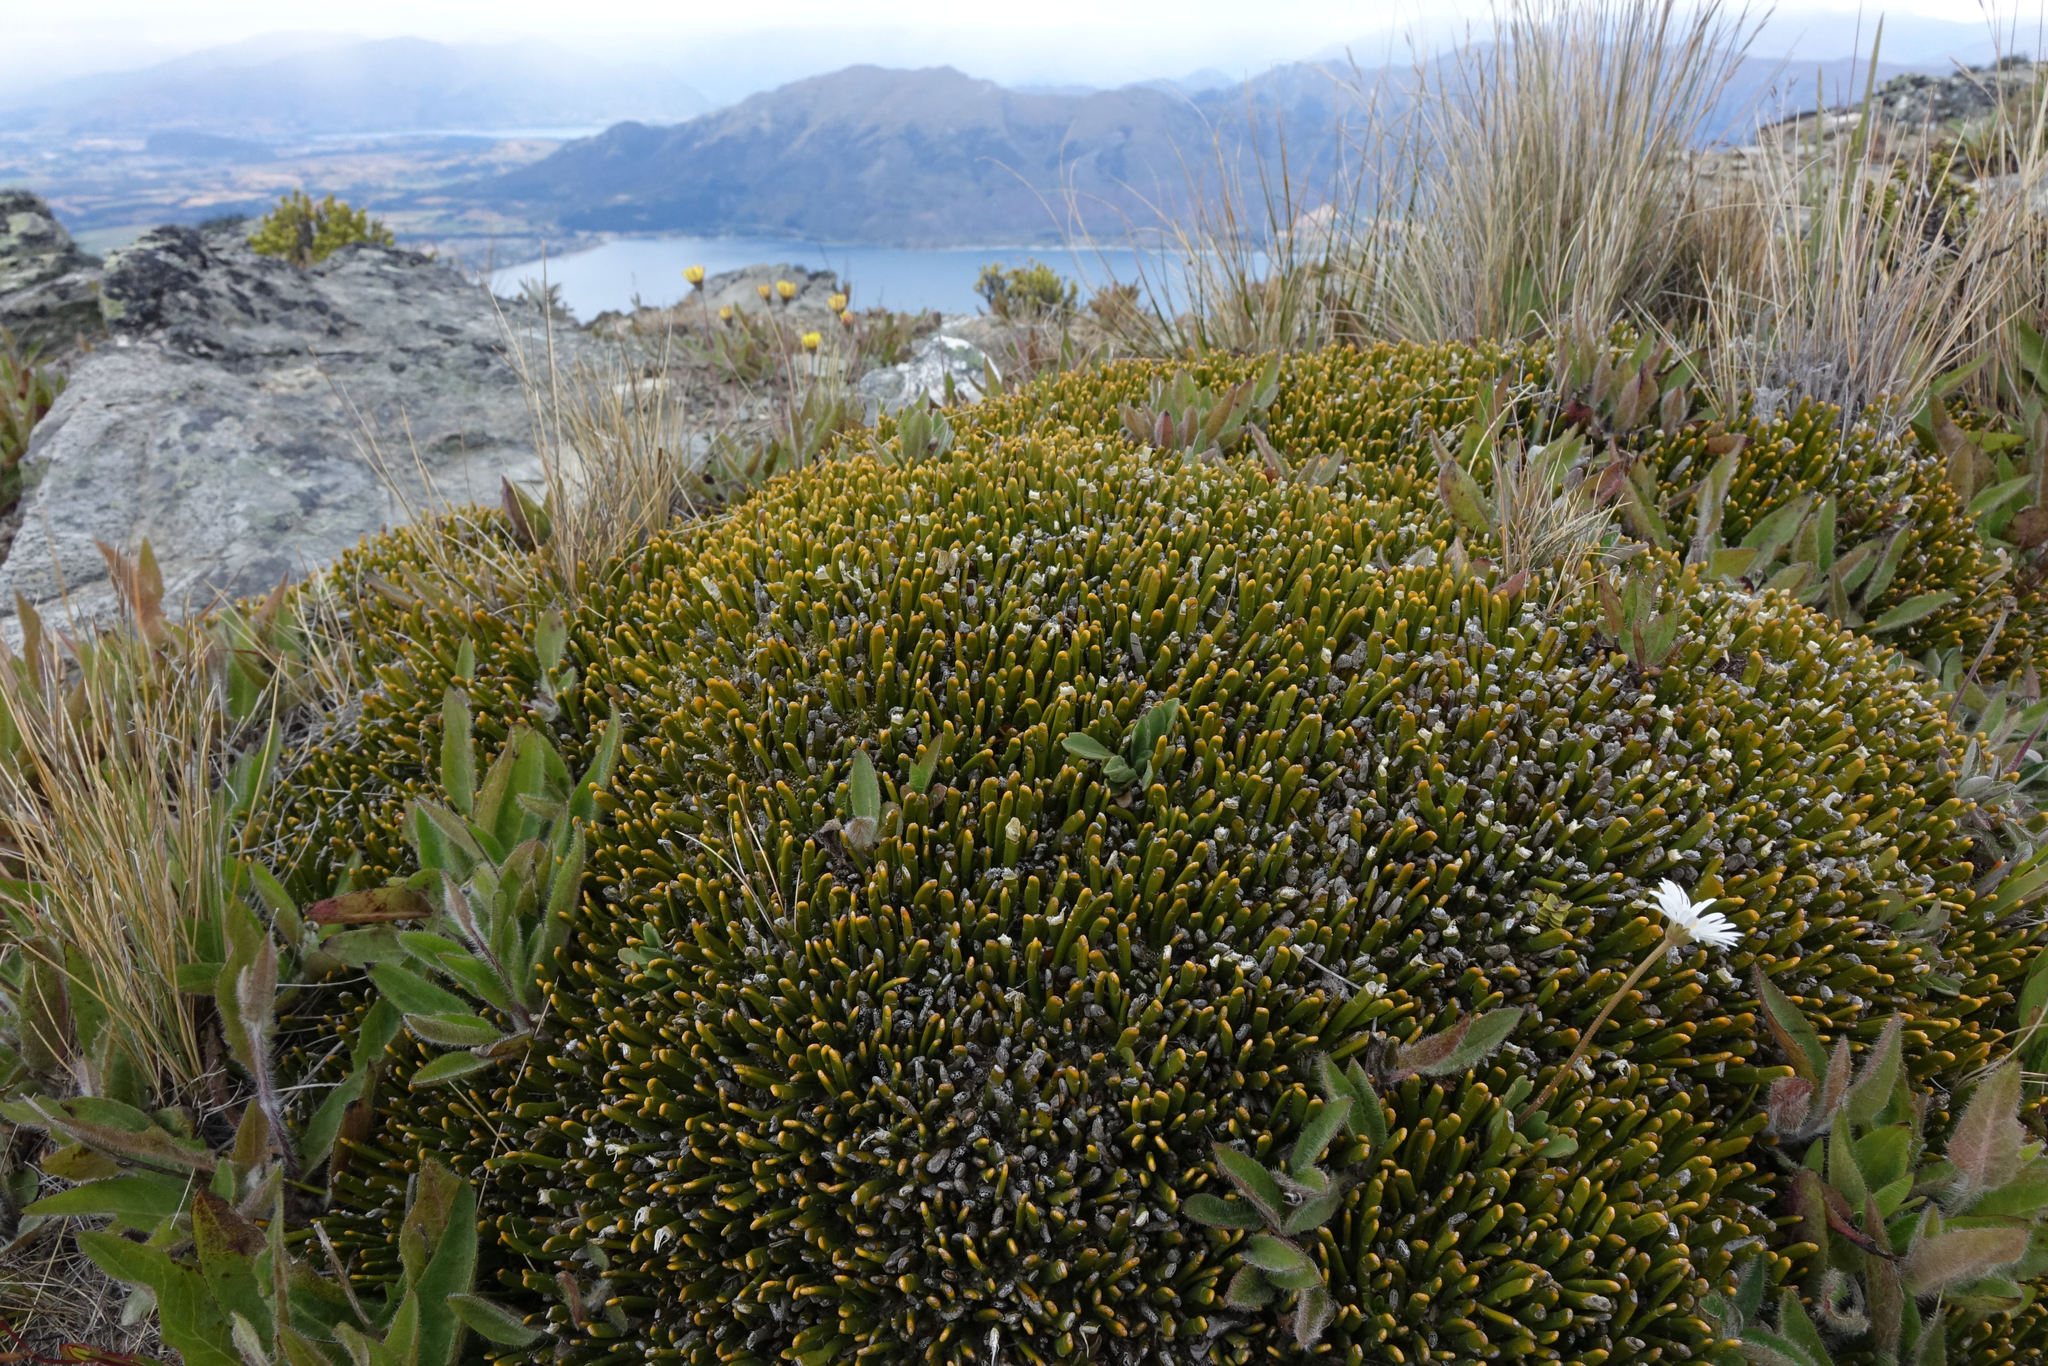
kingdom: Plantae
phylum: Tracheophyta
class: Magnoliopsida
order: Fabales
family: Fabaceae
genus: Carmichaelia
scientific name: Carmichaelia vexillata
